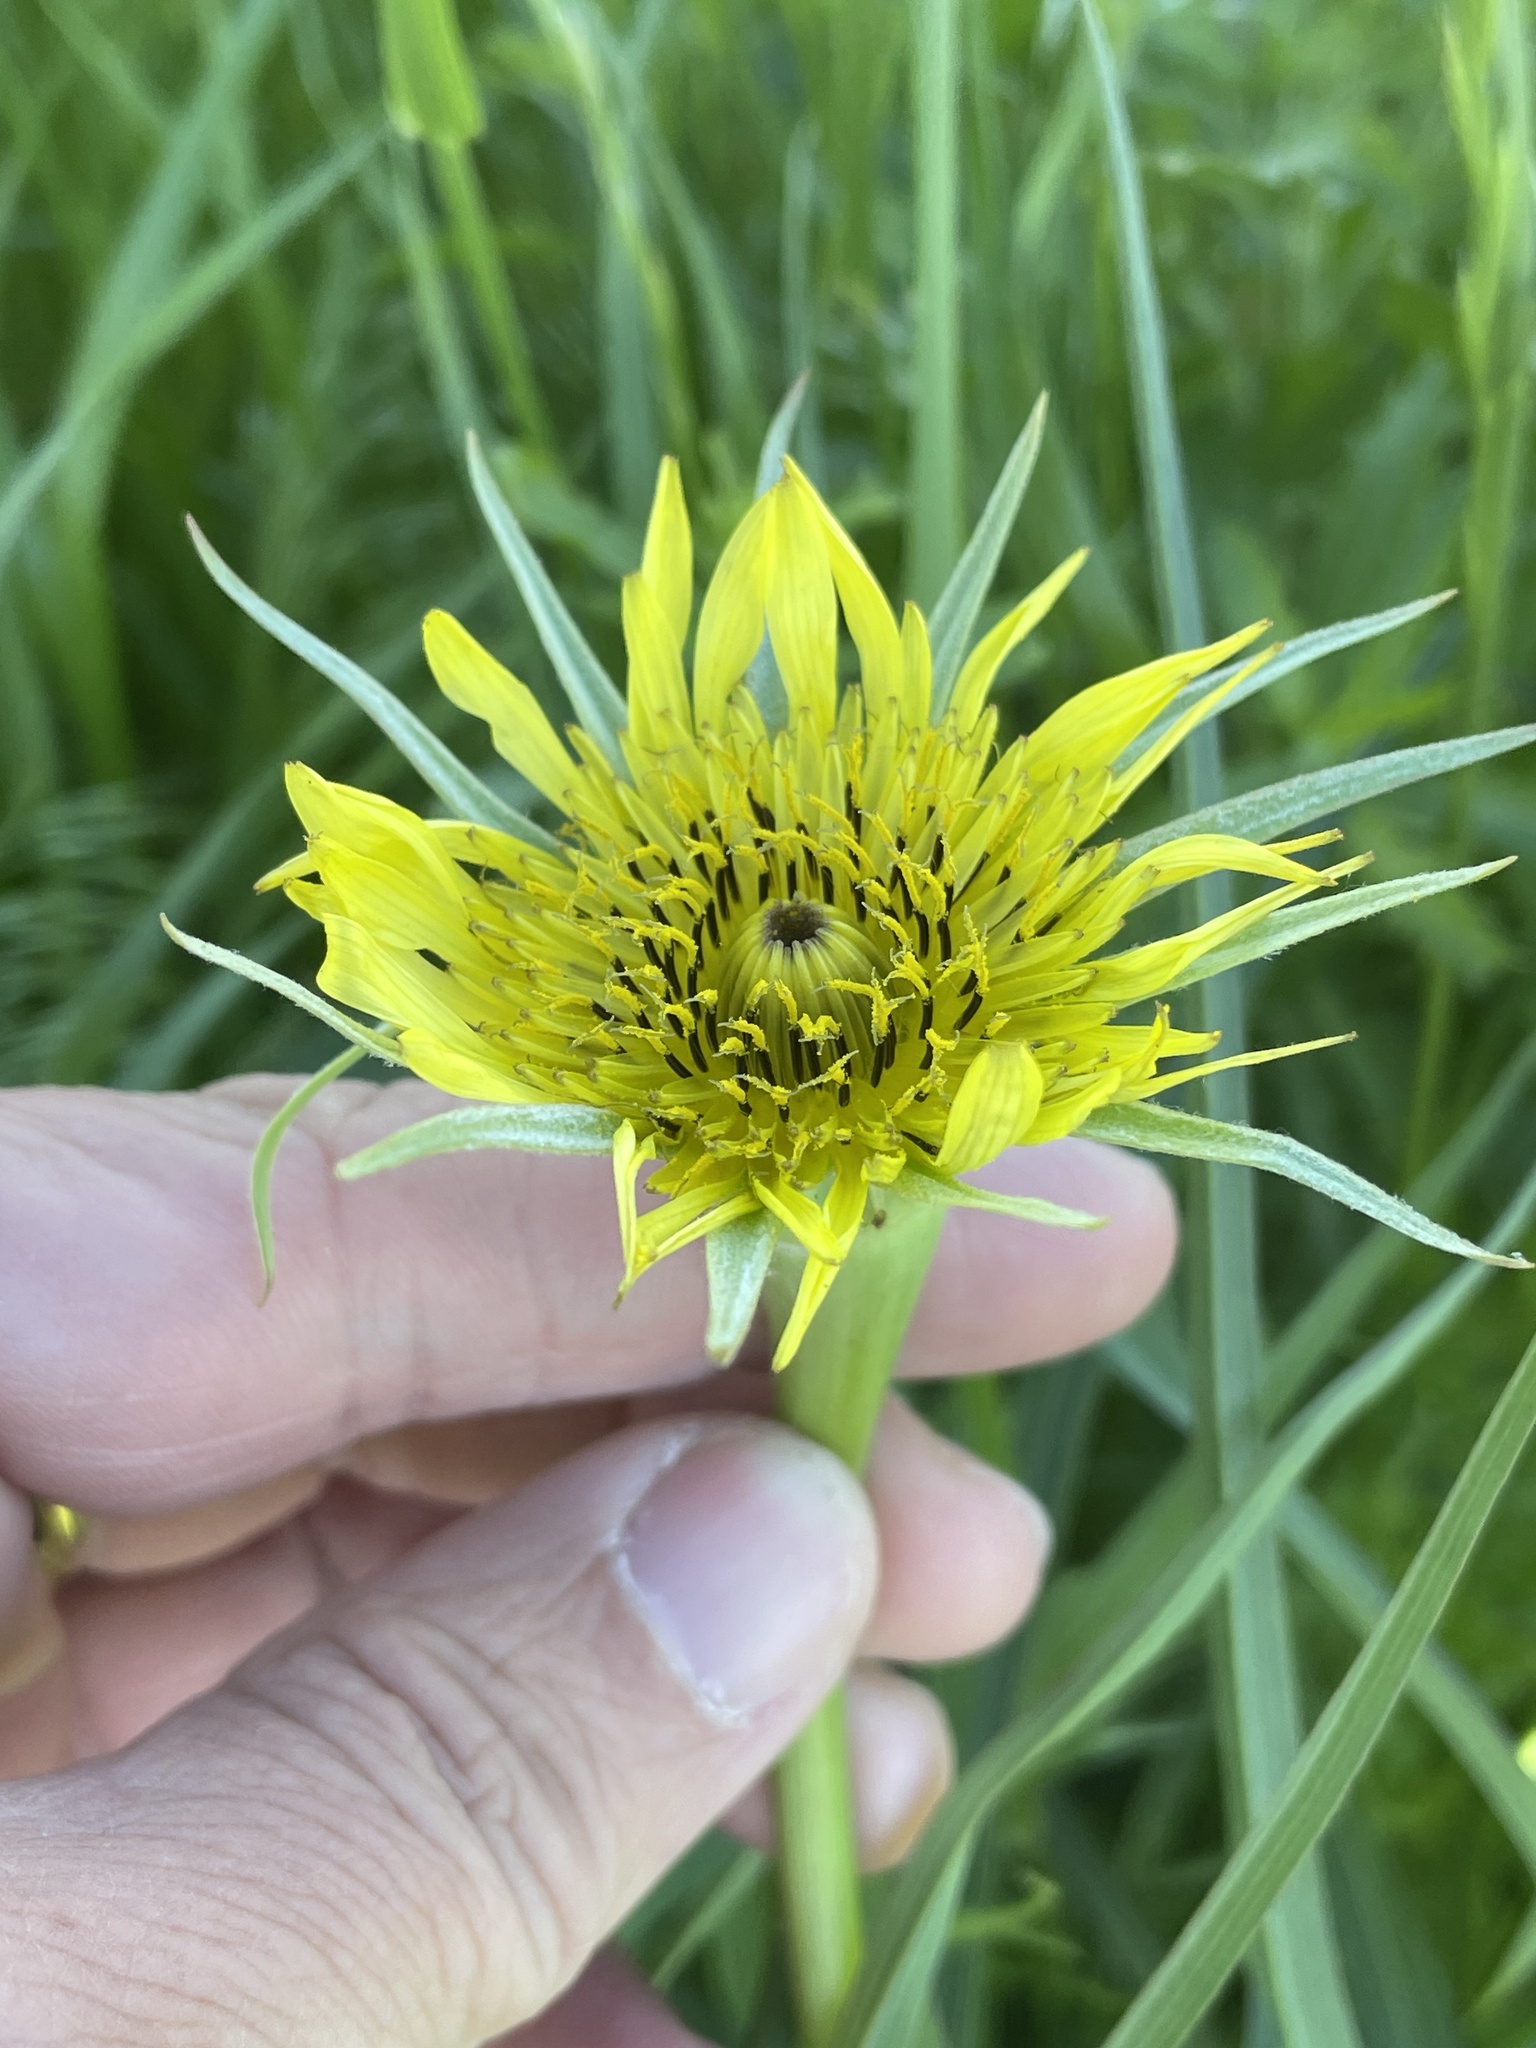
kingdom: Plantae
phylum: Tracheophyta
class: Magnoliopsida
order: Asterales
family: Asteraceae
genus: Tragopogon
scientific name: Tragopogon dubius
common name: Yellow salsify
